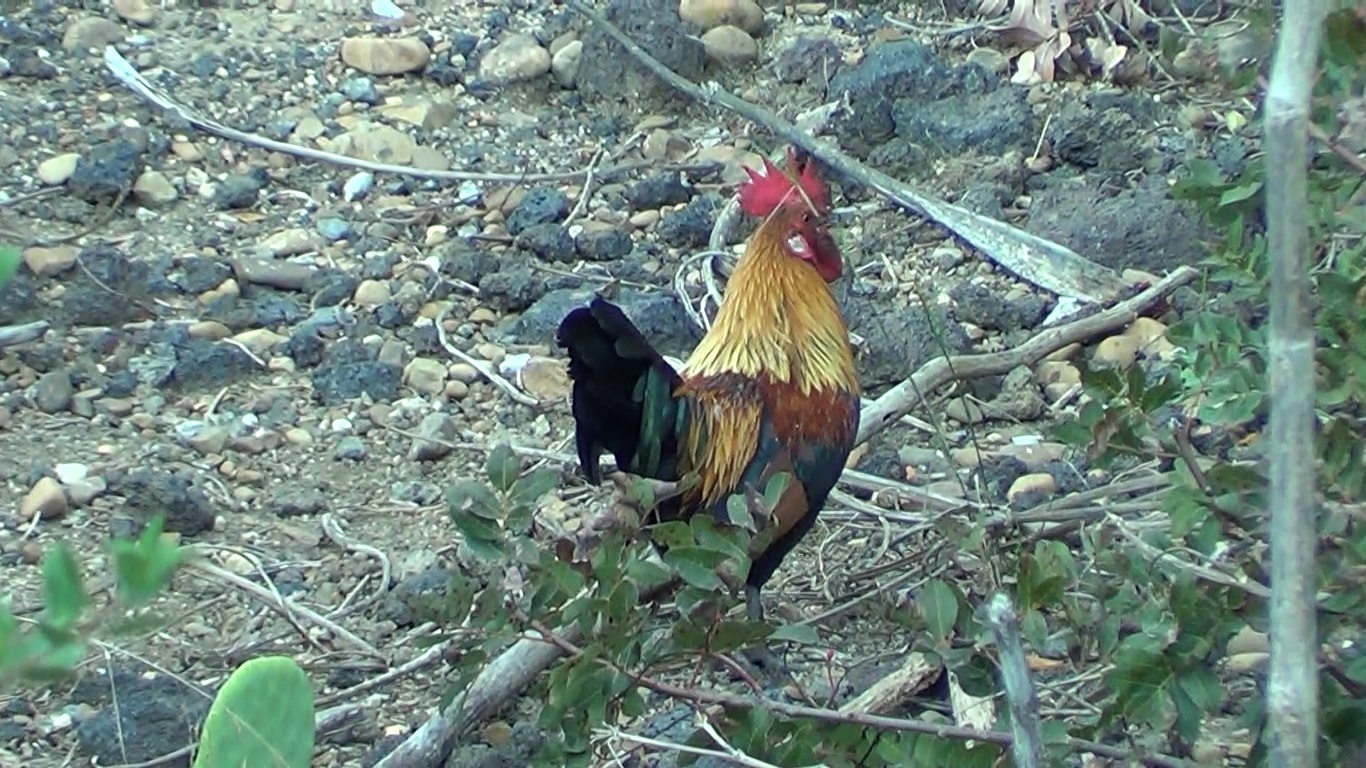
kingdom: Animalia
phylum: Chordata
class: Aves
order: Galliformes
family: Phasianidae
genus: Gallus
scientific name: Gallus gallus
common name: Red junglefowl
